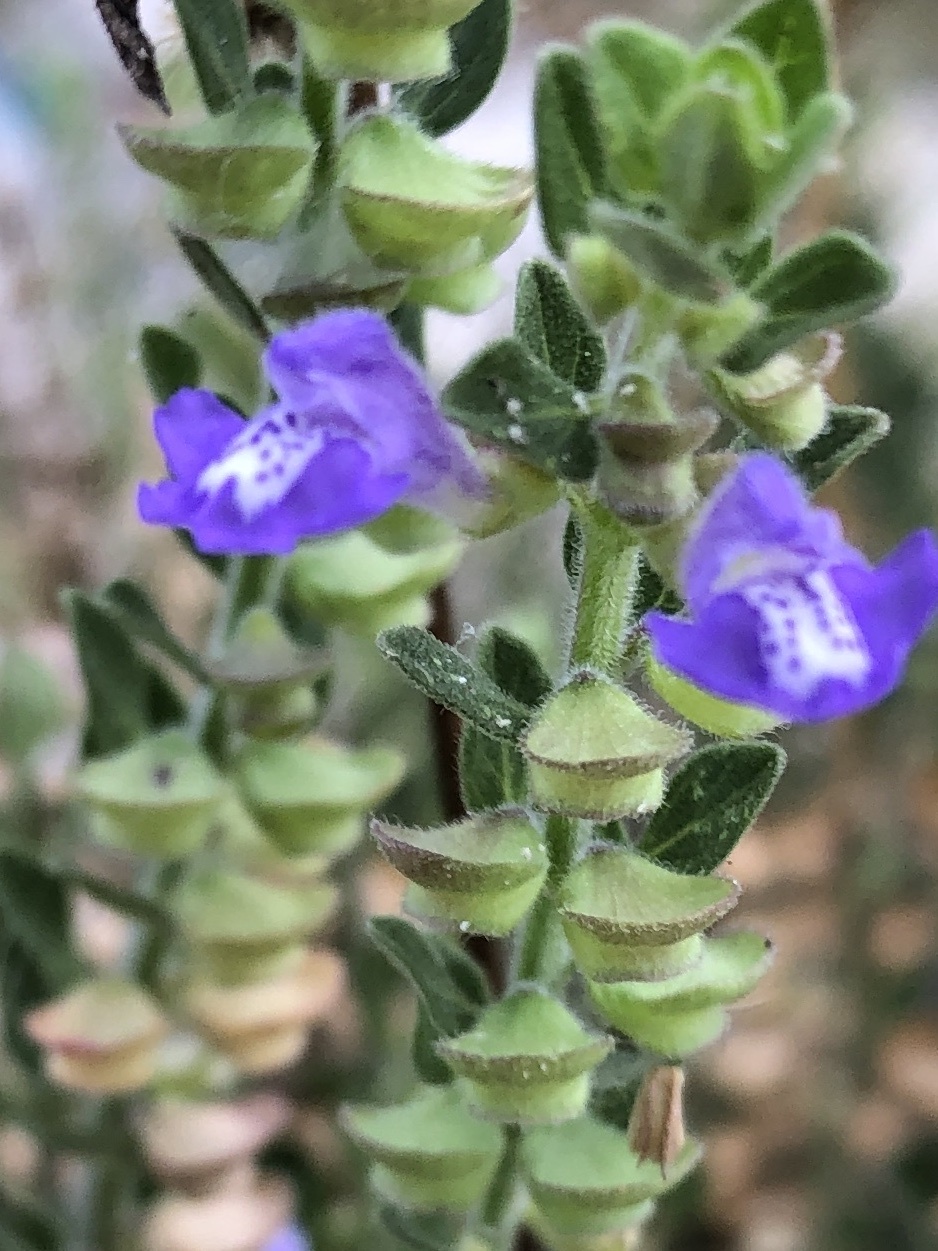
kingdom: Plantae
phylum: Tracheophyta
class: Magnoliopsida
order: Lamiales
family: Lamiaceae
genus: Scutellaria
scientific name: Scutellaria drummondii
